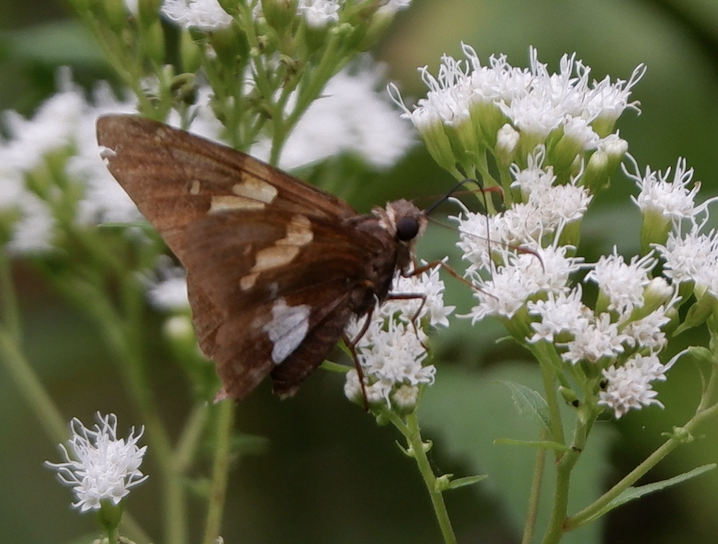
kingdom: Animalia
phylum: Arthropoda
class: Insecta
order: Lepidoptera
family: Hesperiidae
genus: Epargyreus
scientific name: Epargyreus clarus
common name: Silver-spotted skipper
